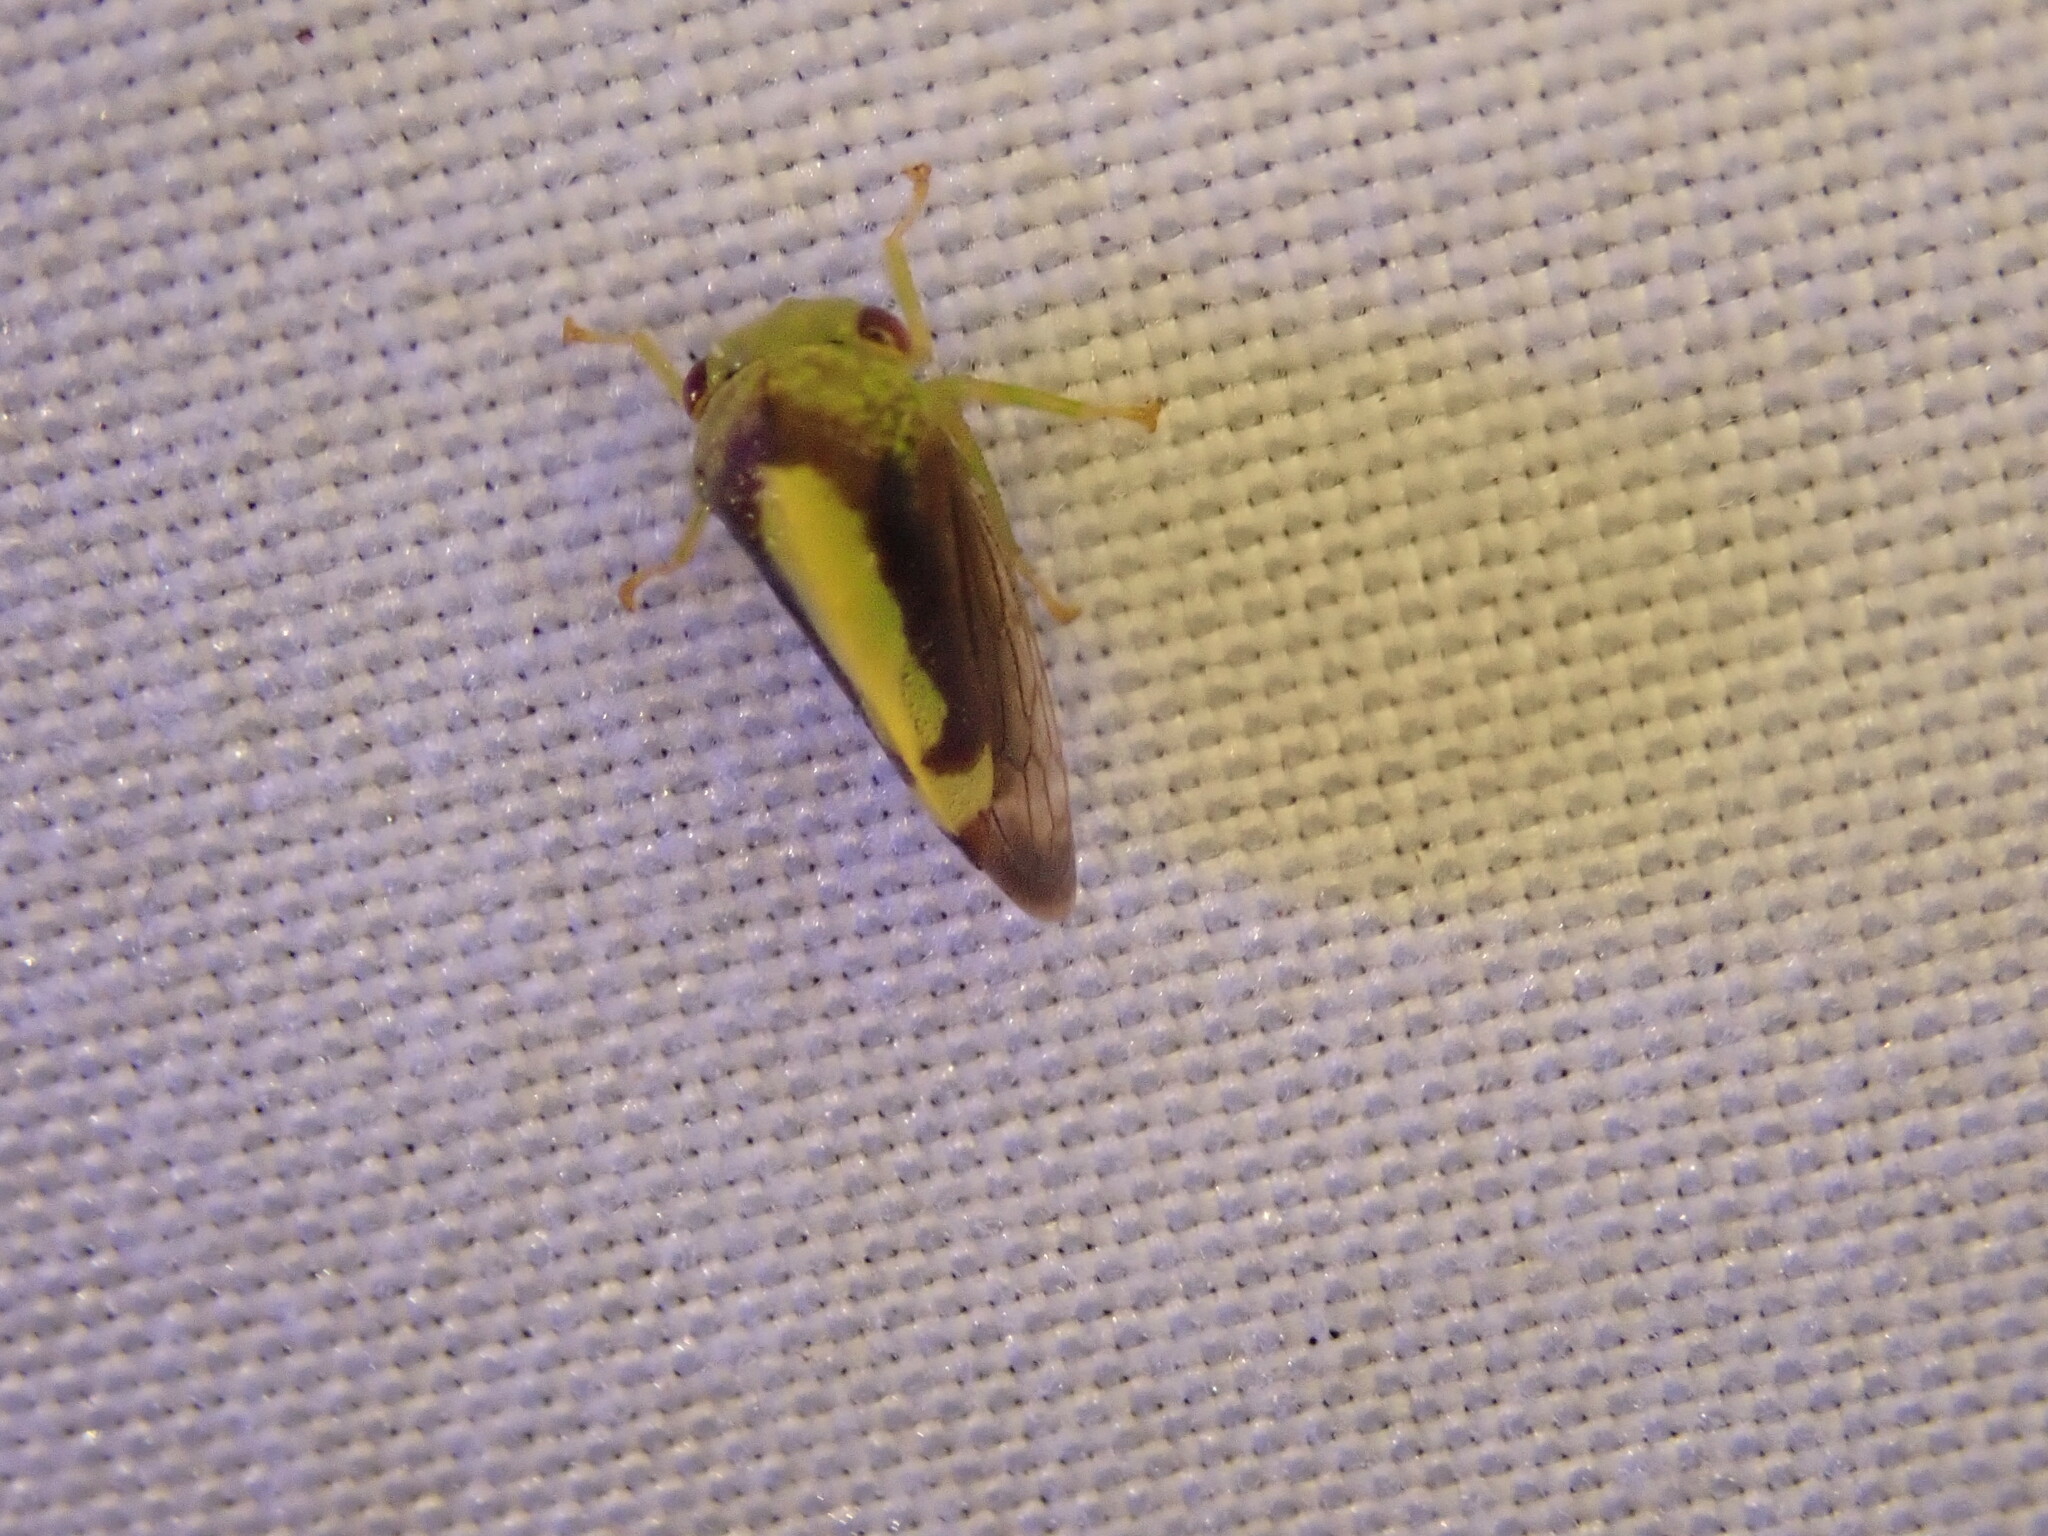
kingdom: Animalia
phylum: Arthropoda
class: Insecta
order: Hemiptera
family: Membracidae
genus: Atymna
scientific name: Atymna querci
